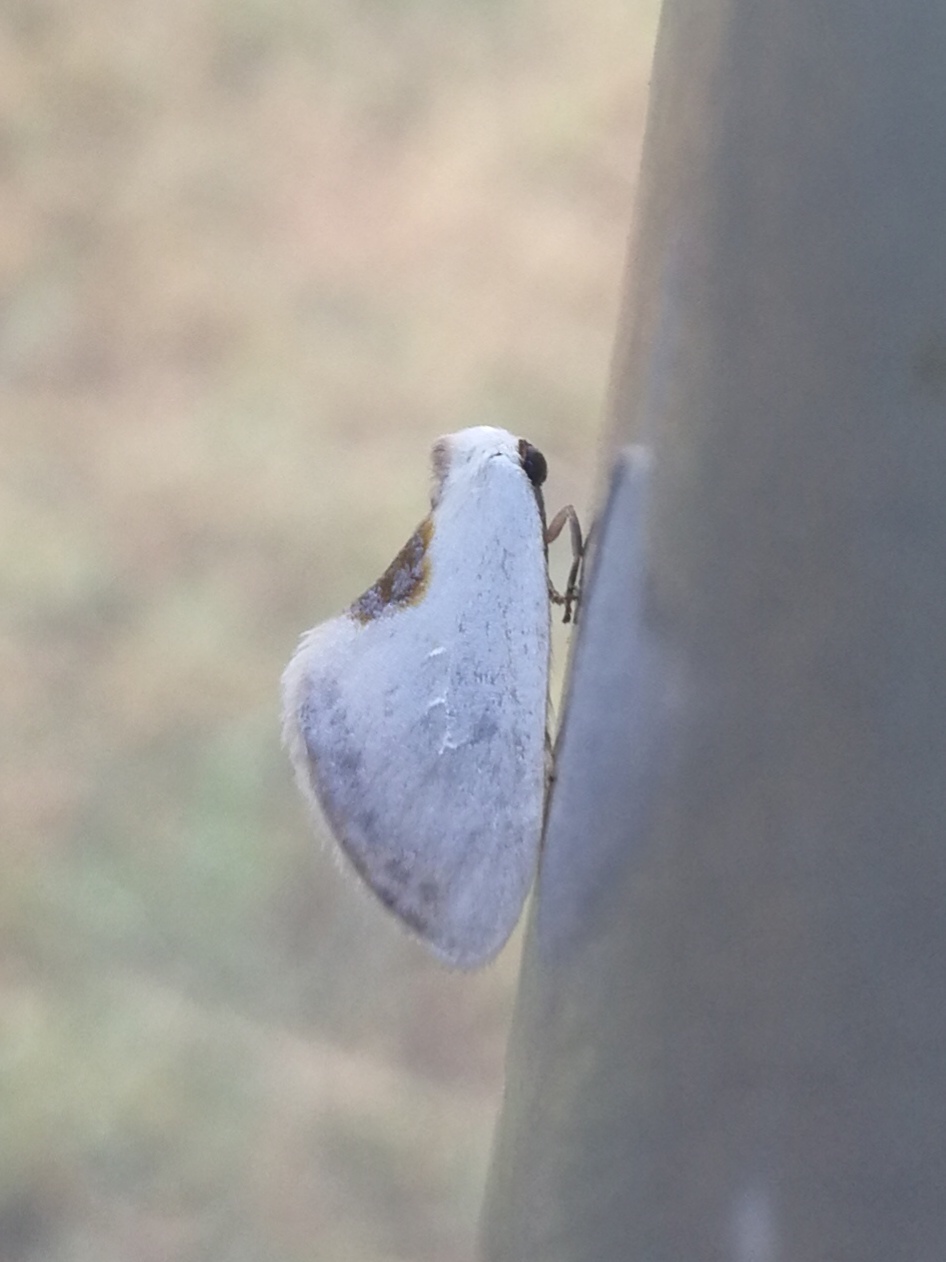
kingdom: Animalia
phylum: Arthropoda
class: Insecta
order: Lepidoptera
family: Drepanidae
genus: Cilix
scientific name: Cilix hispanica
